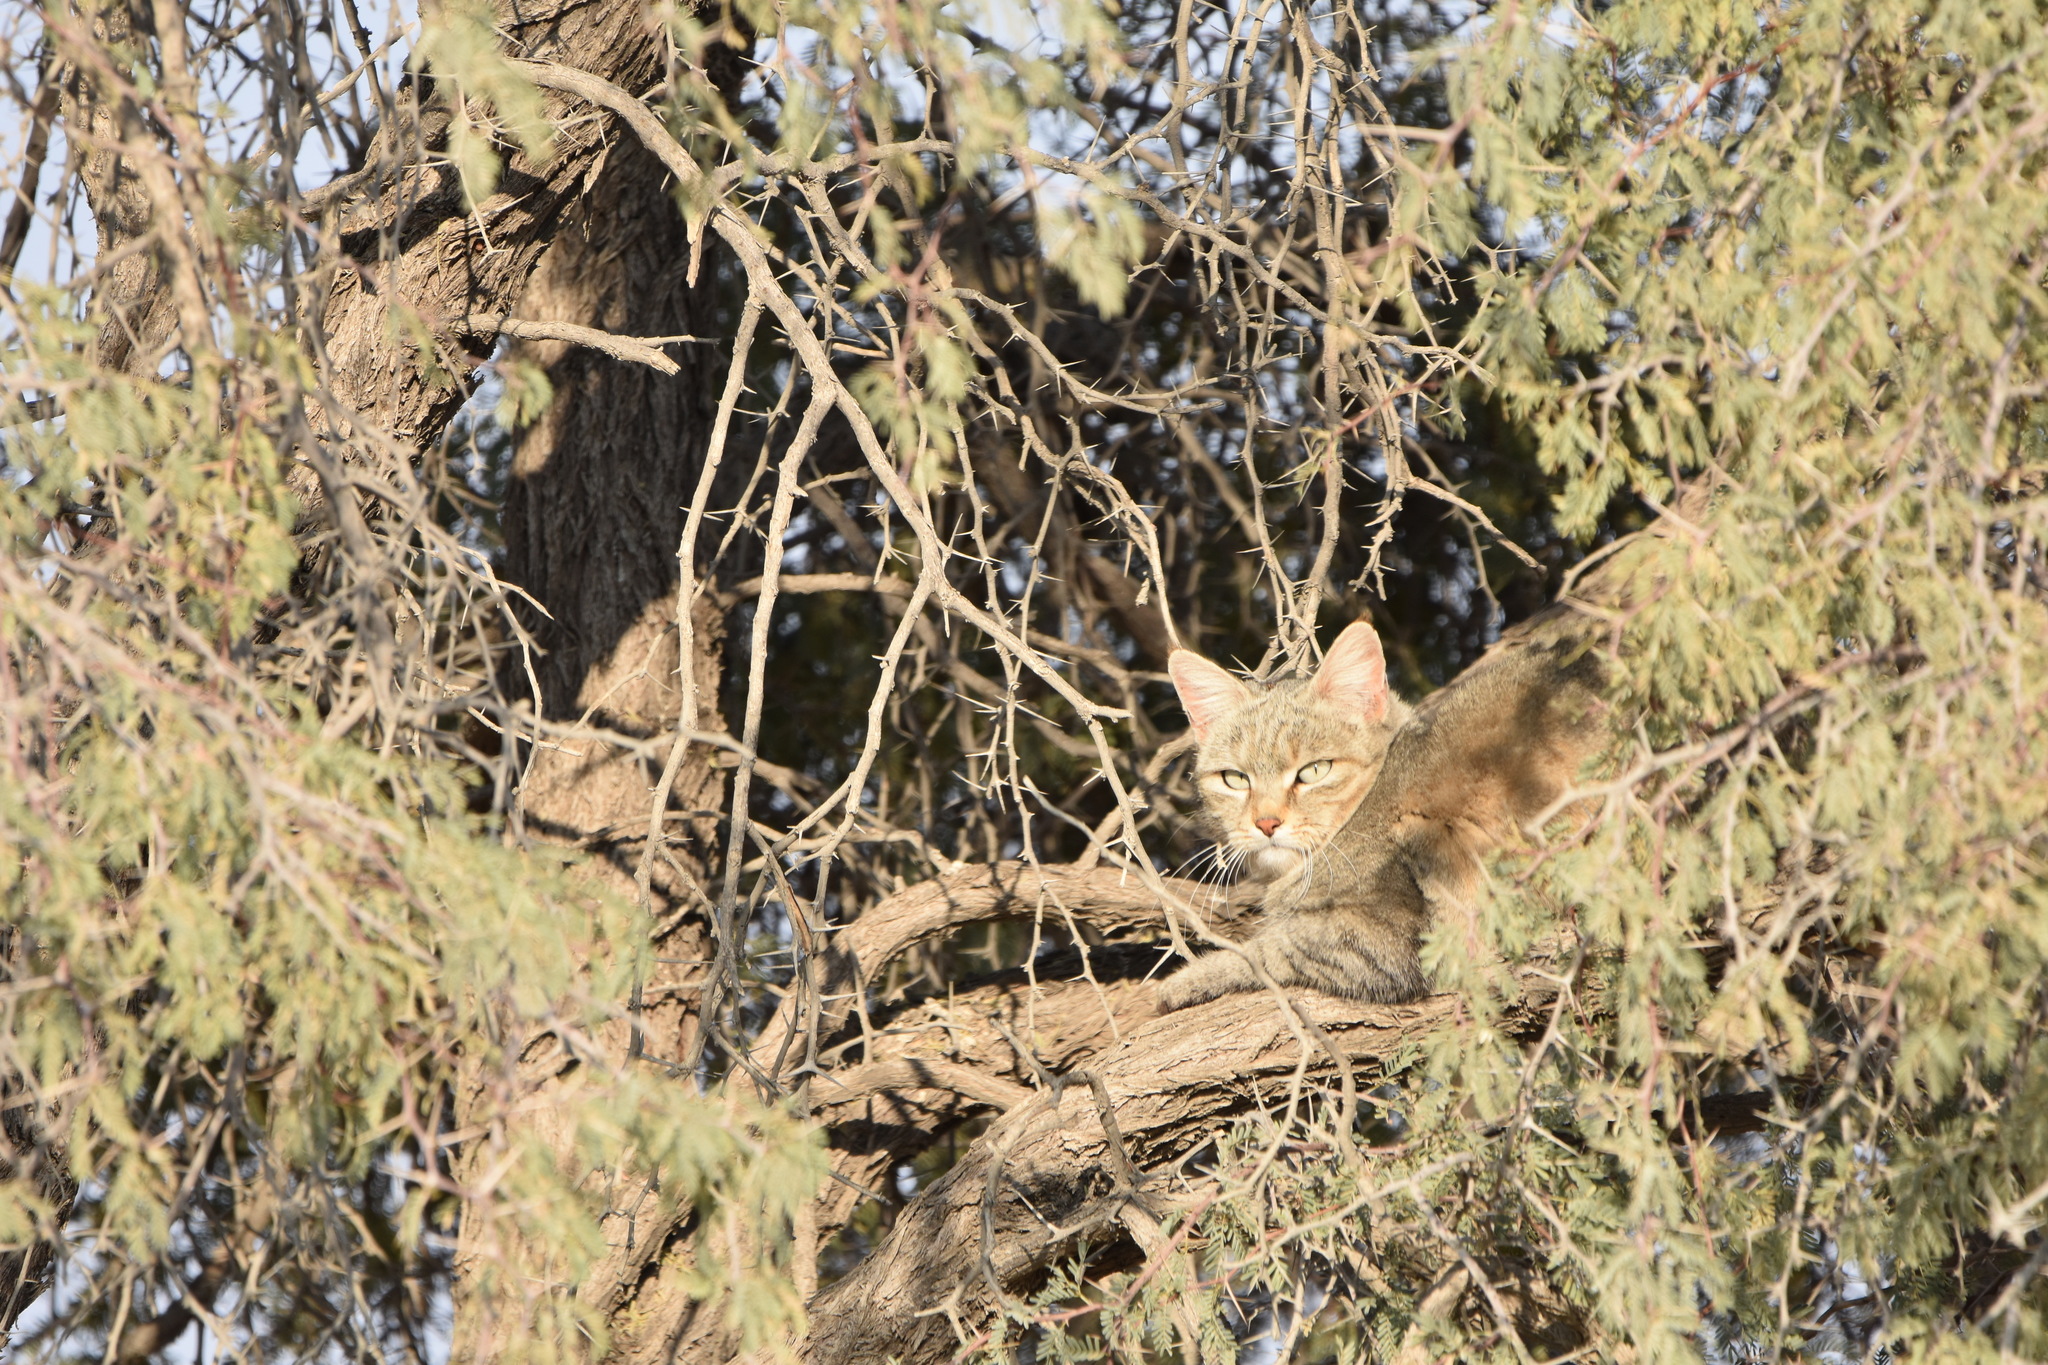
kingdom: Animalia
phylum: Chordata
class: Mammalia
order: Carnivora
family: Felidae
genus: Felis
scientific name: Felis silvestris
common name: Wildcat
